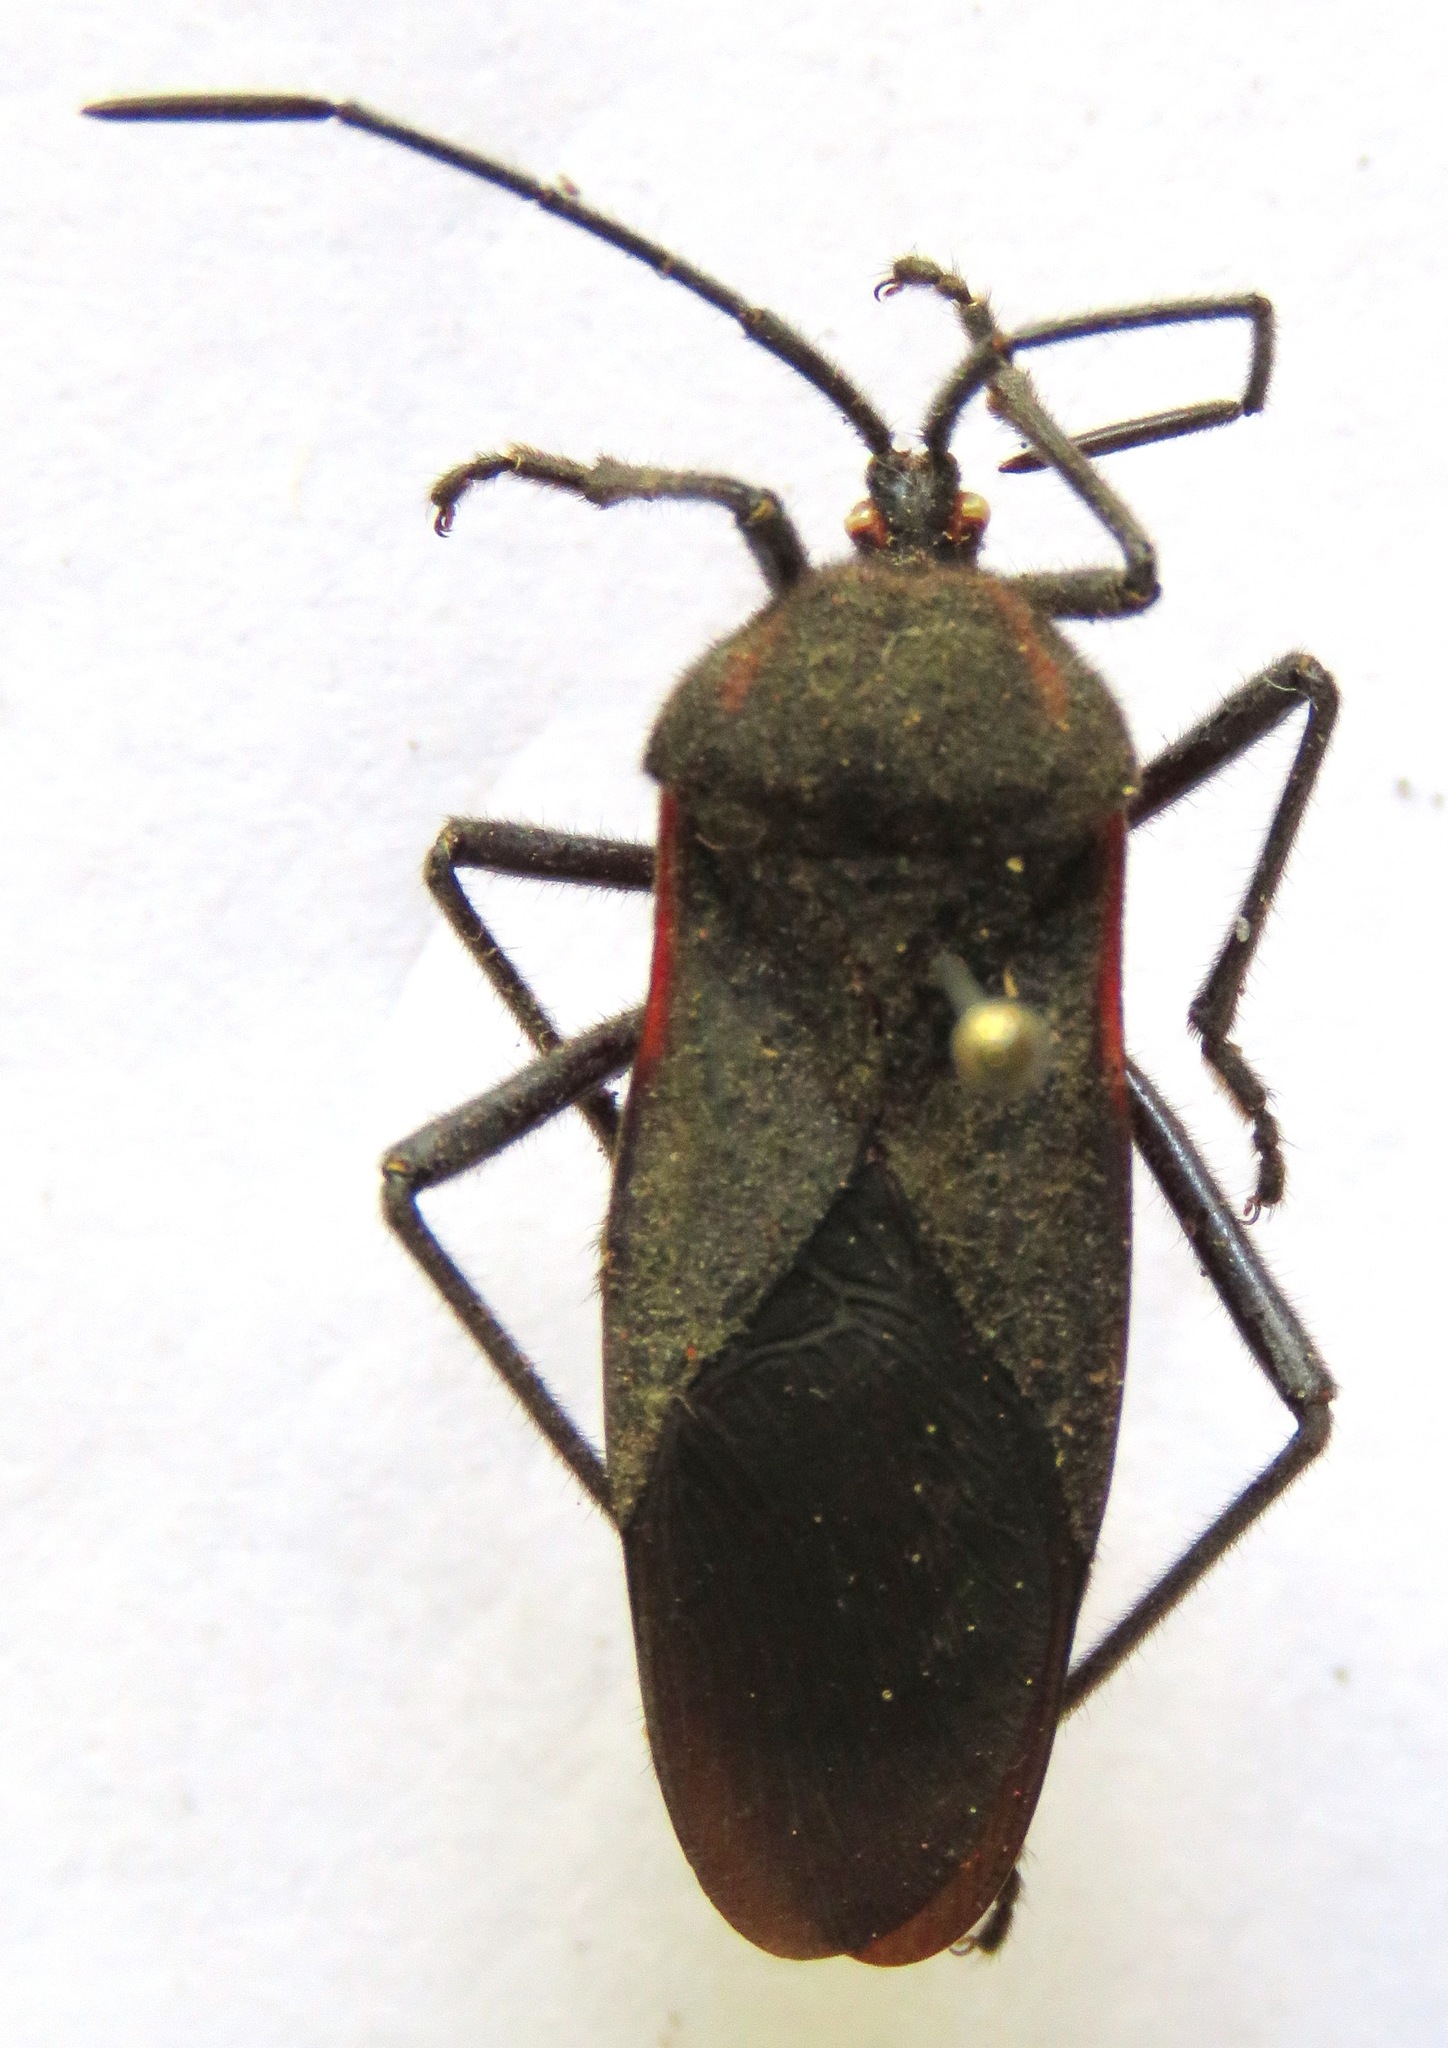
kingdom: Animalia
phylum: Arthropoda
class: Insecta
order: Hemiptera
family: Coreidae
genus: Sephina
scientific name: Sephina subulata
